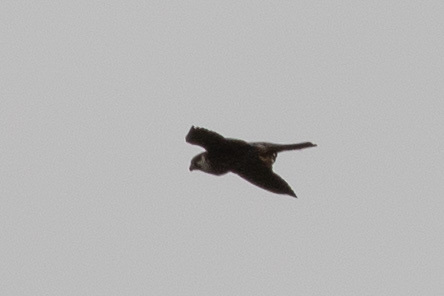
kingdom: Animalia
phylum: Chordata
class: Aves
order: Falconiformes
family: Falconidae
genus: Falco
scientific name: Falco peregrinus
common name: Peregrine falcon
